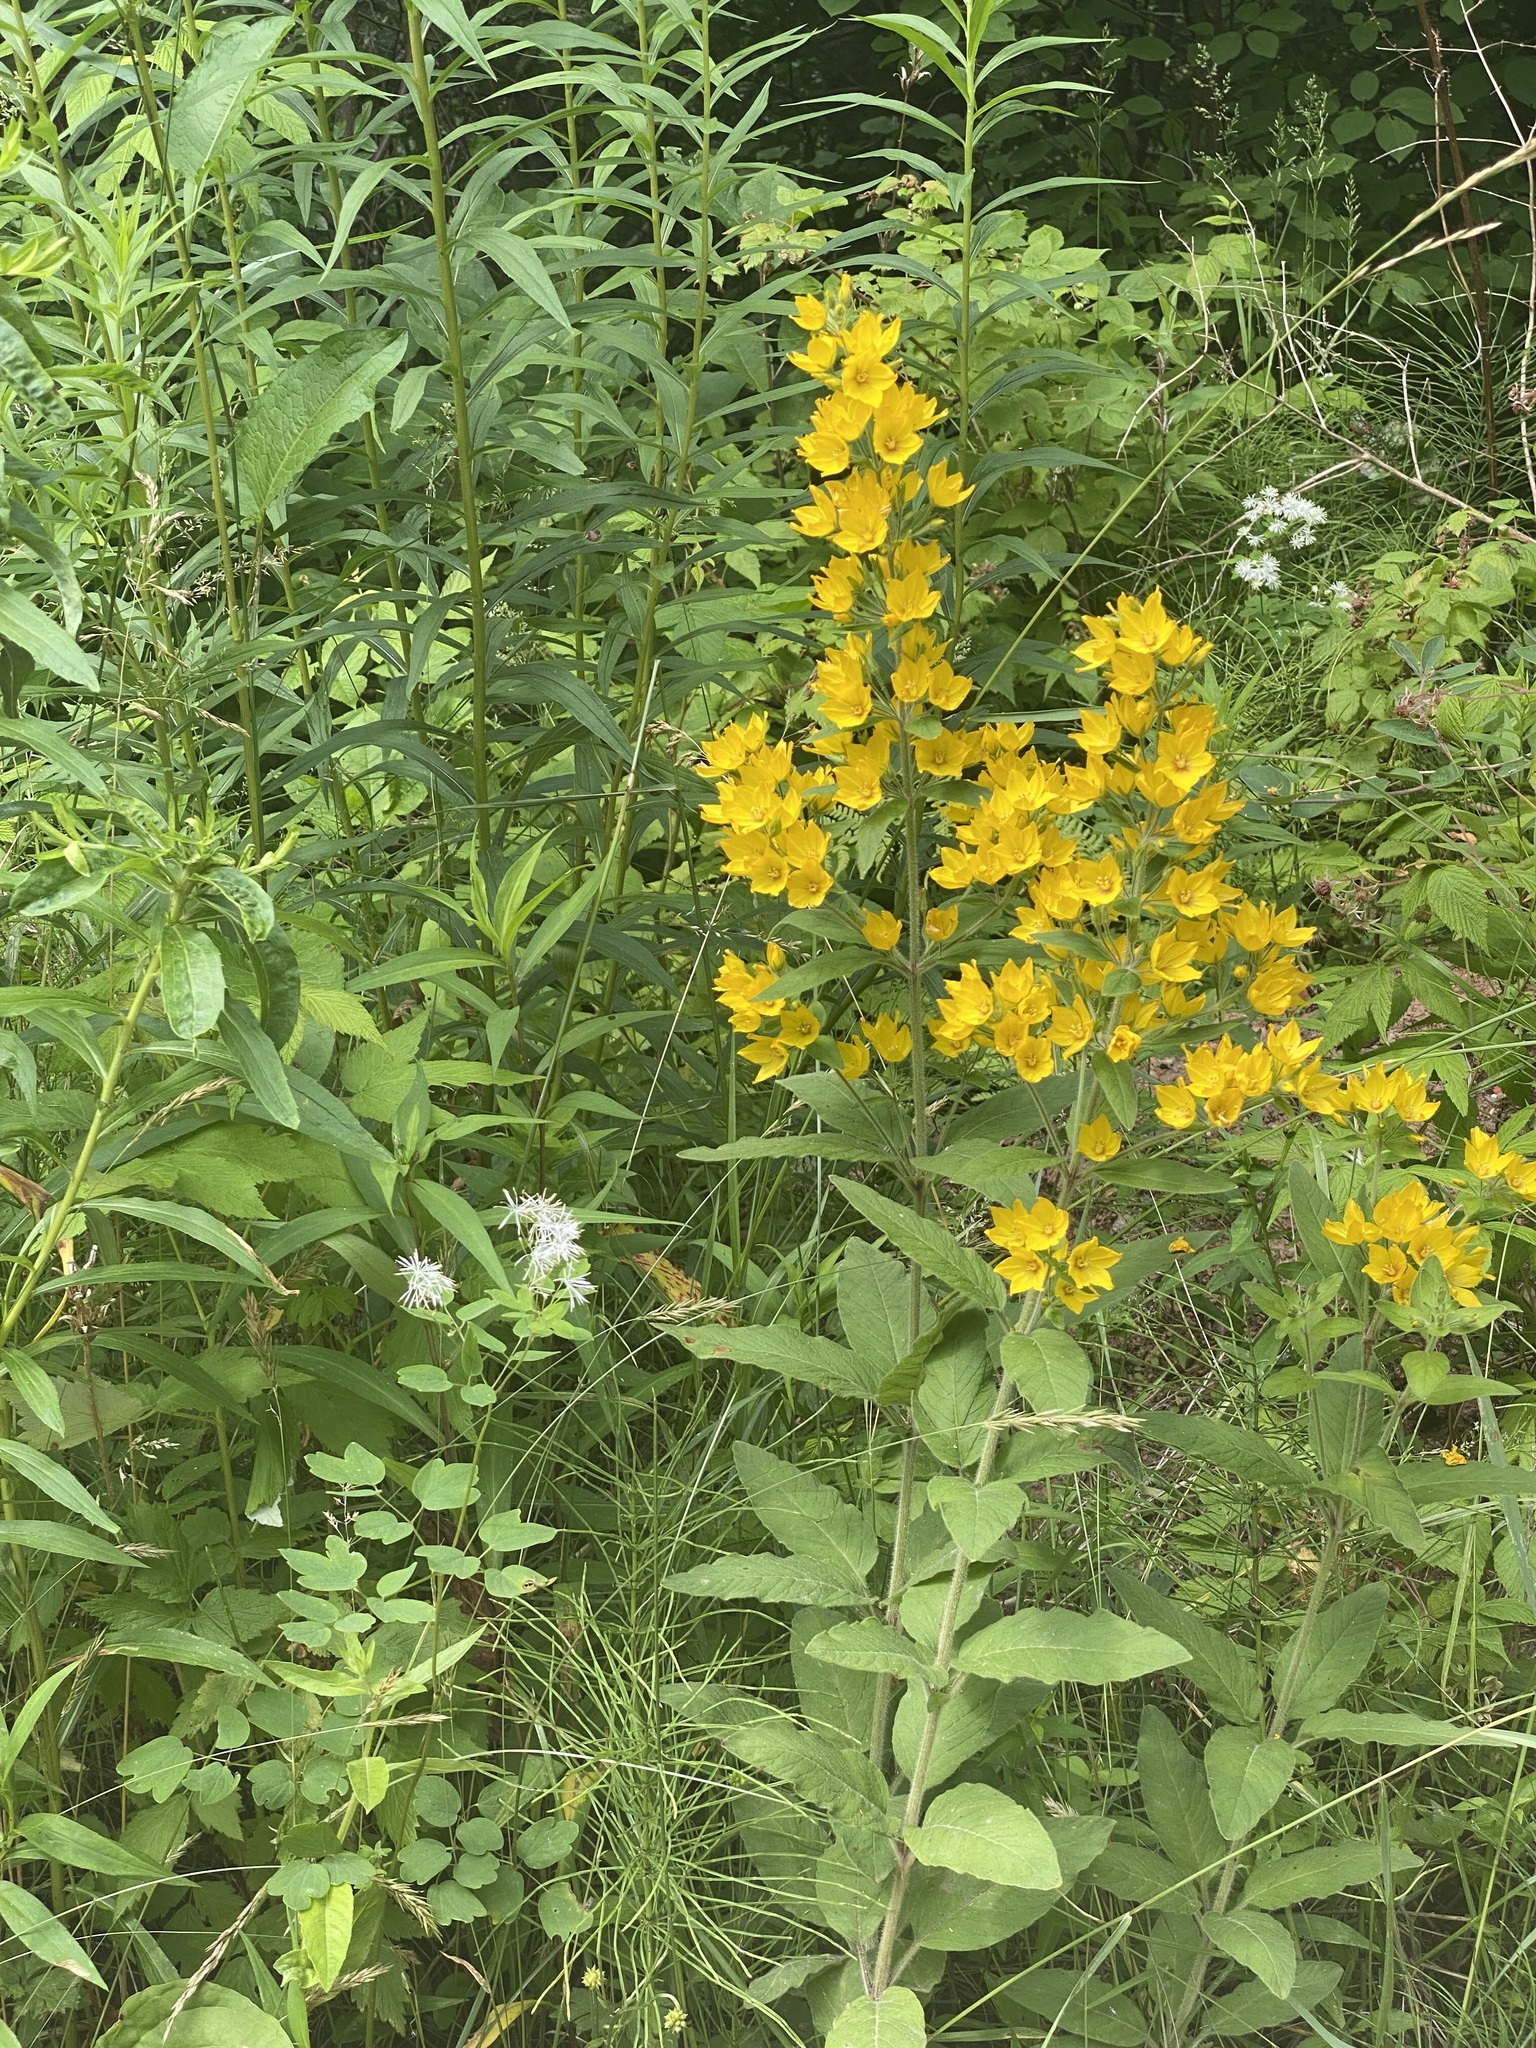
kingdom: Plantae
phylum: Tracheophyta
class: Magnoliopsida
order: Ericales
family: Primulaceae
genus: Lysimachia
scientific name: Lysimachia punctata
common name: Dotted loosestrife
